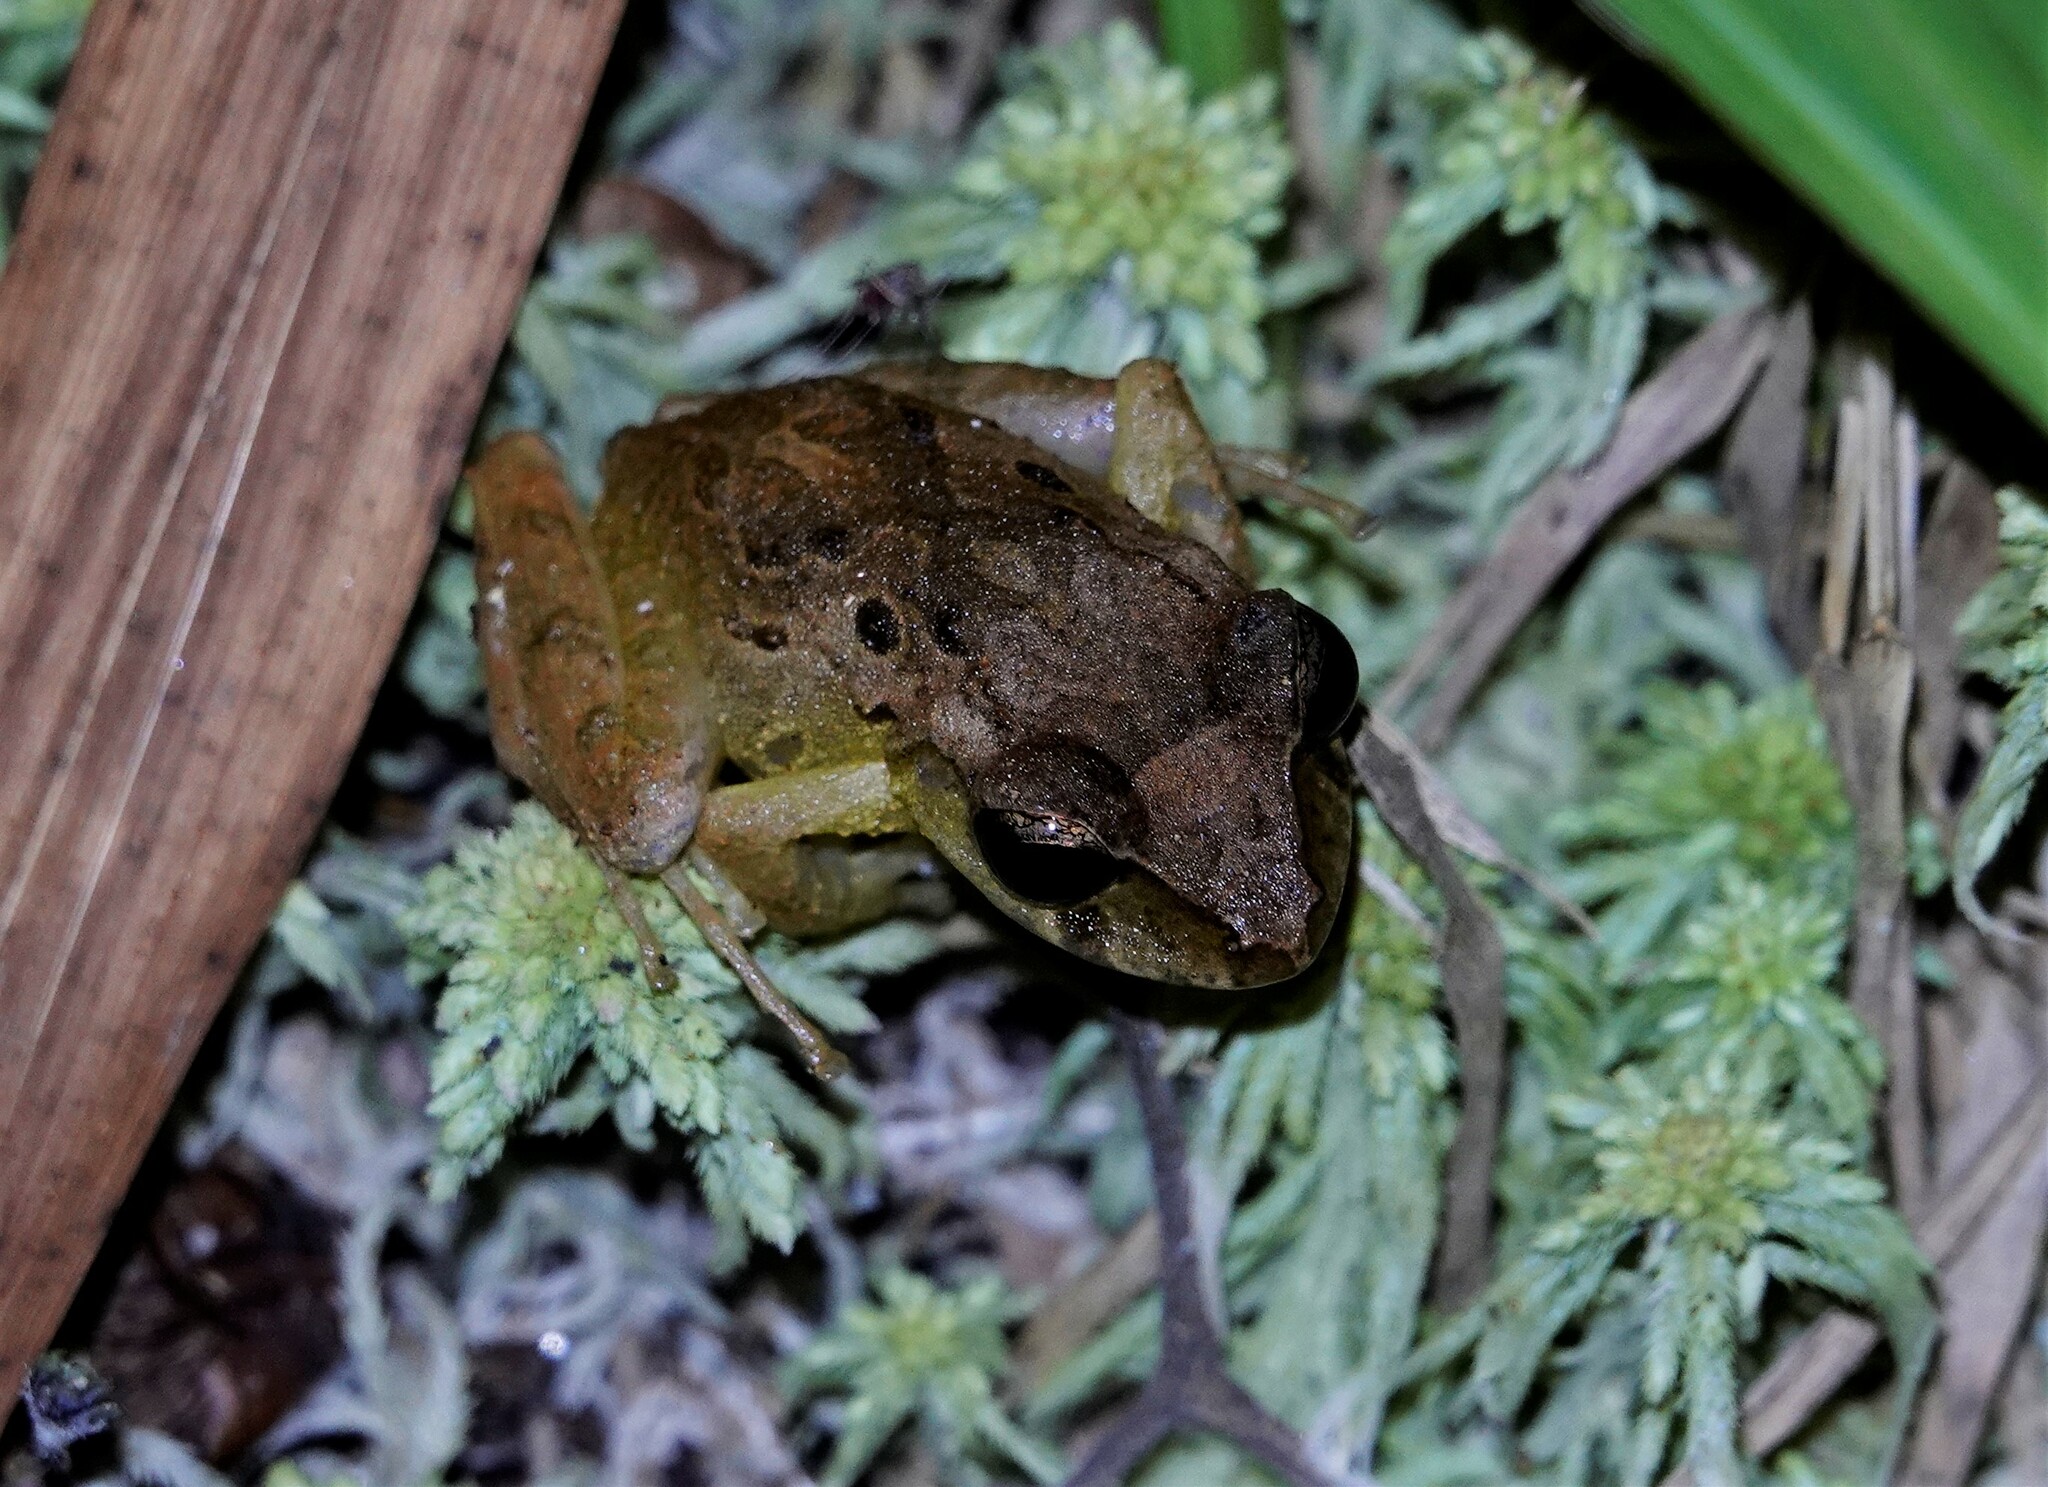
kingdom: Animalia
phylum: Chordata
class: Amphibia
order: Anura
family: Craugastoridae
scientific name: Craugastoridae
